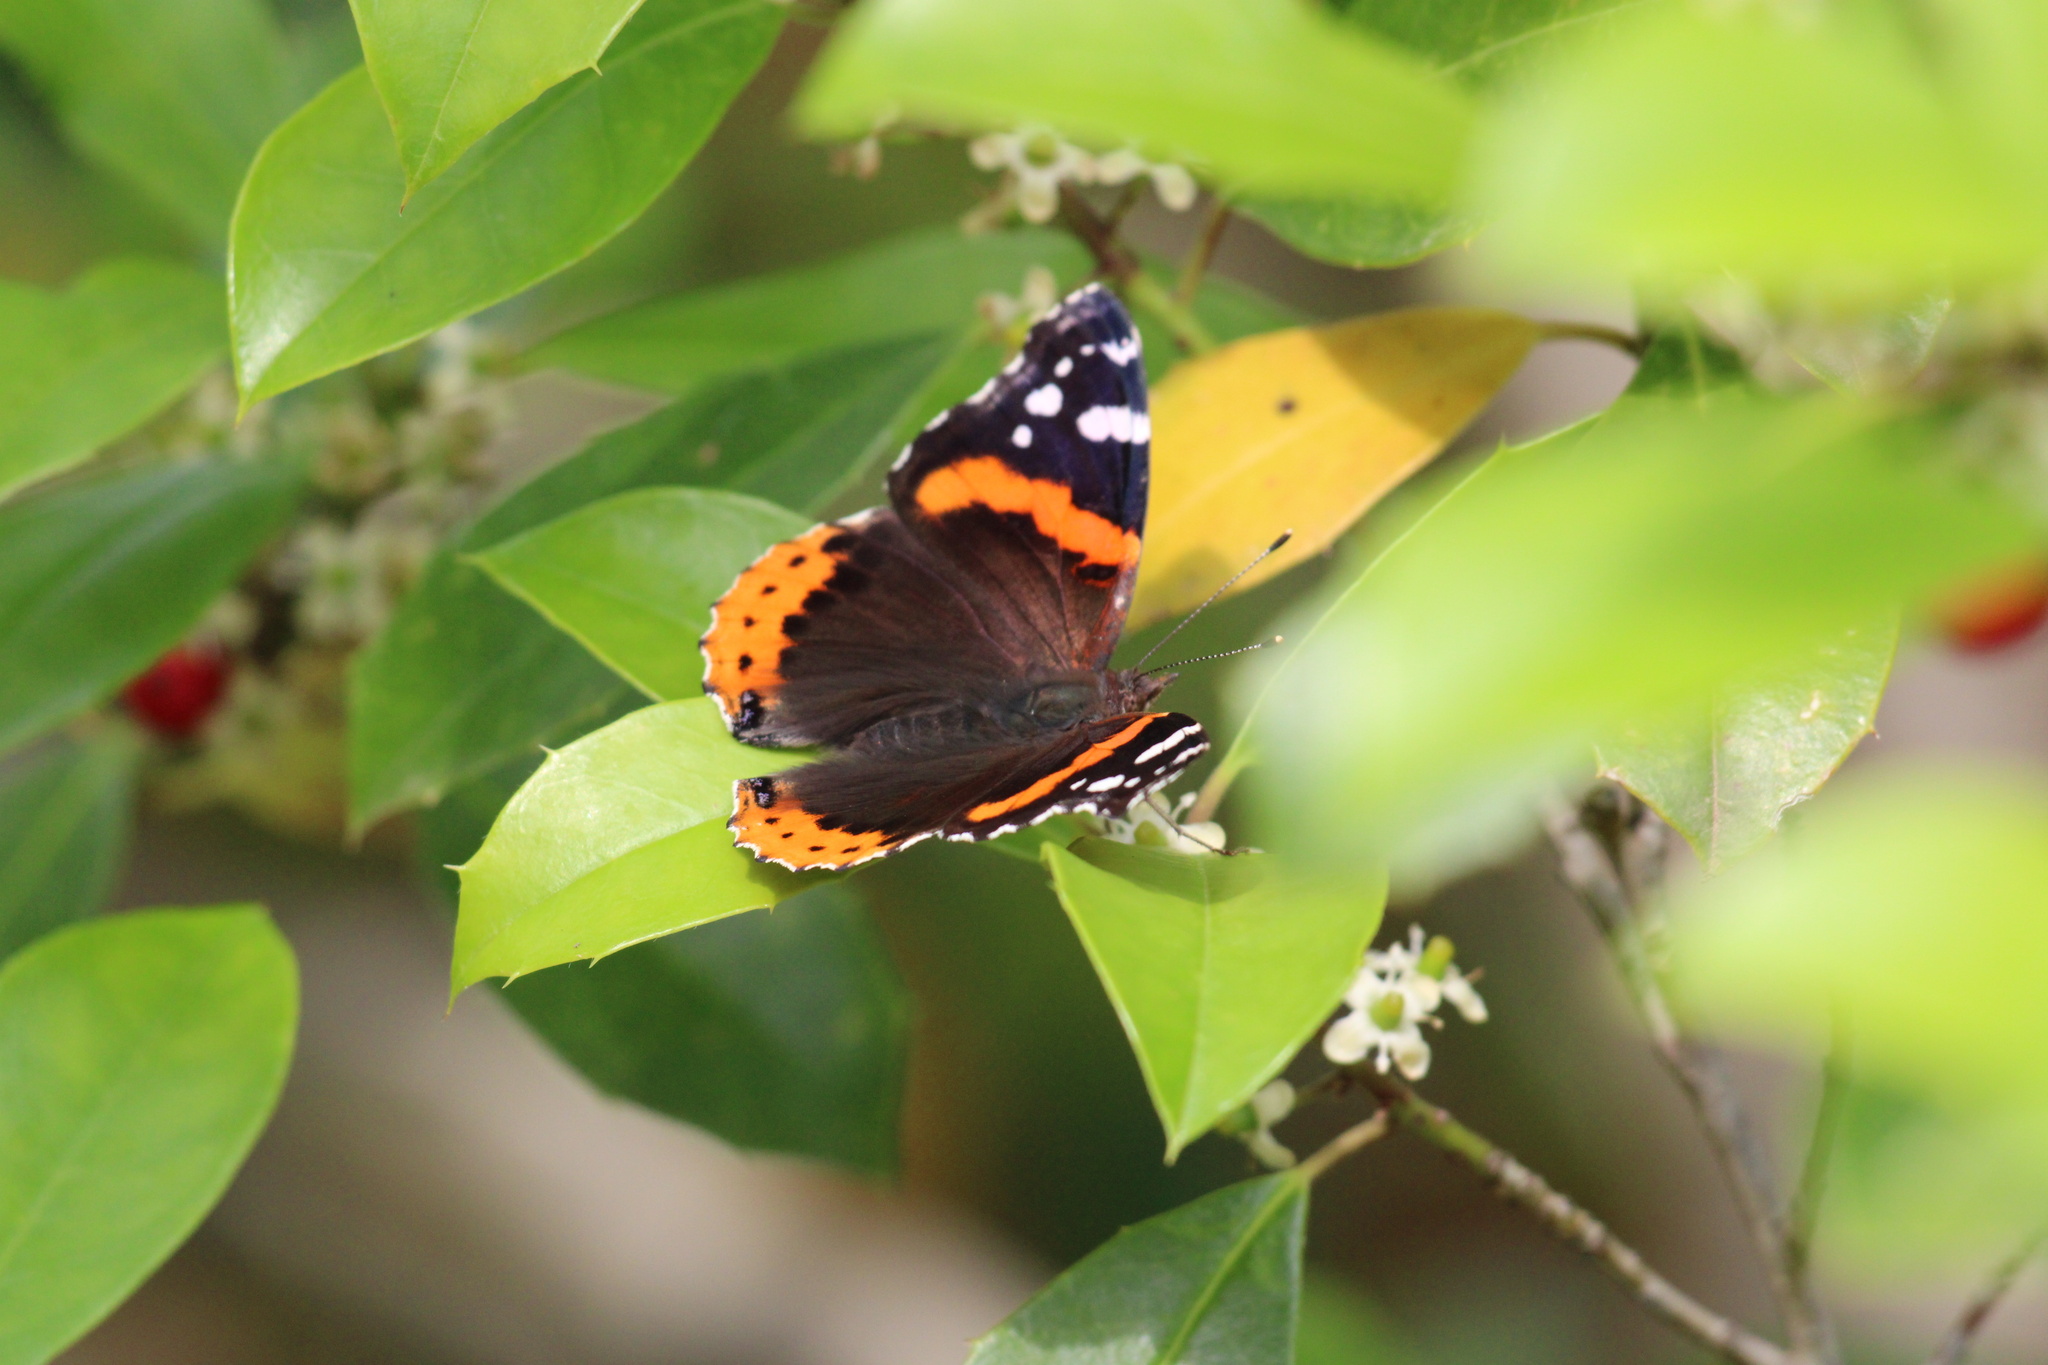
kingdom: Animalia
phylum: Arthropoda
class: Insecta
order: Lepidoptera
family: Nymphalidae
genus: Vanessa
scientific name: Vanessa atalanta
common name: Red admiral
